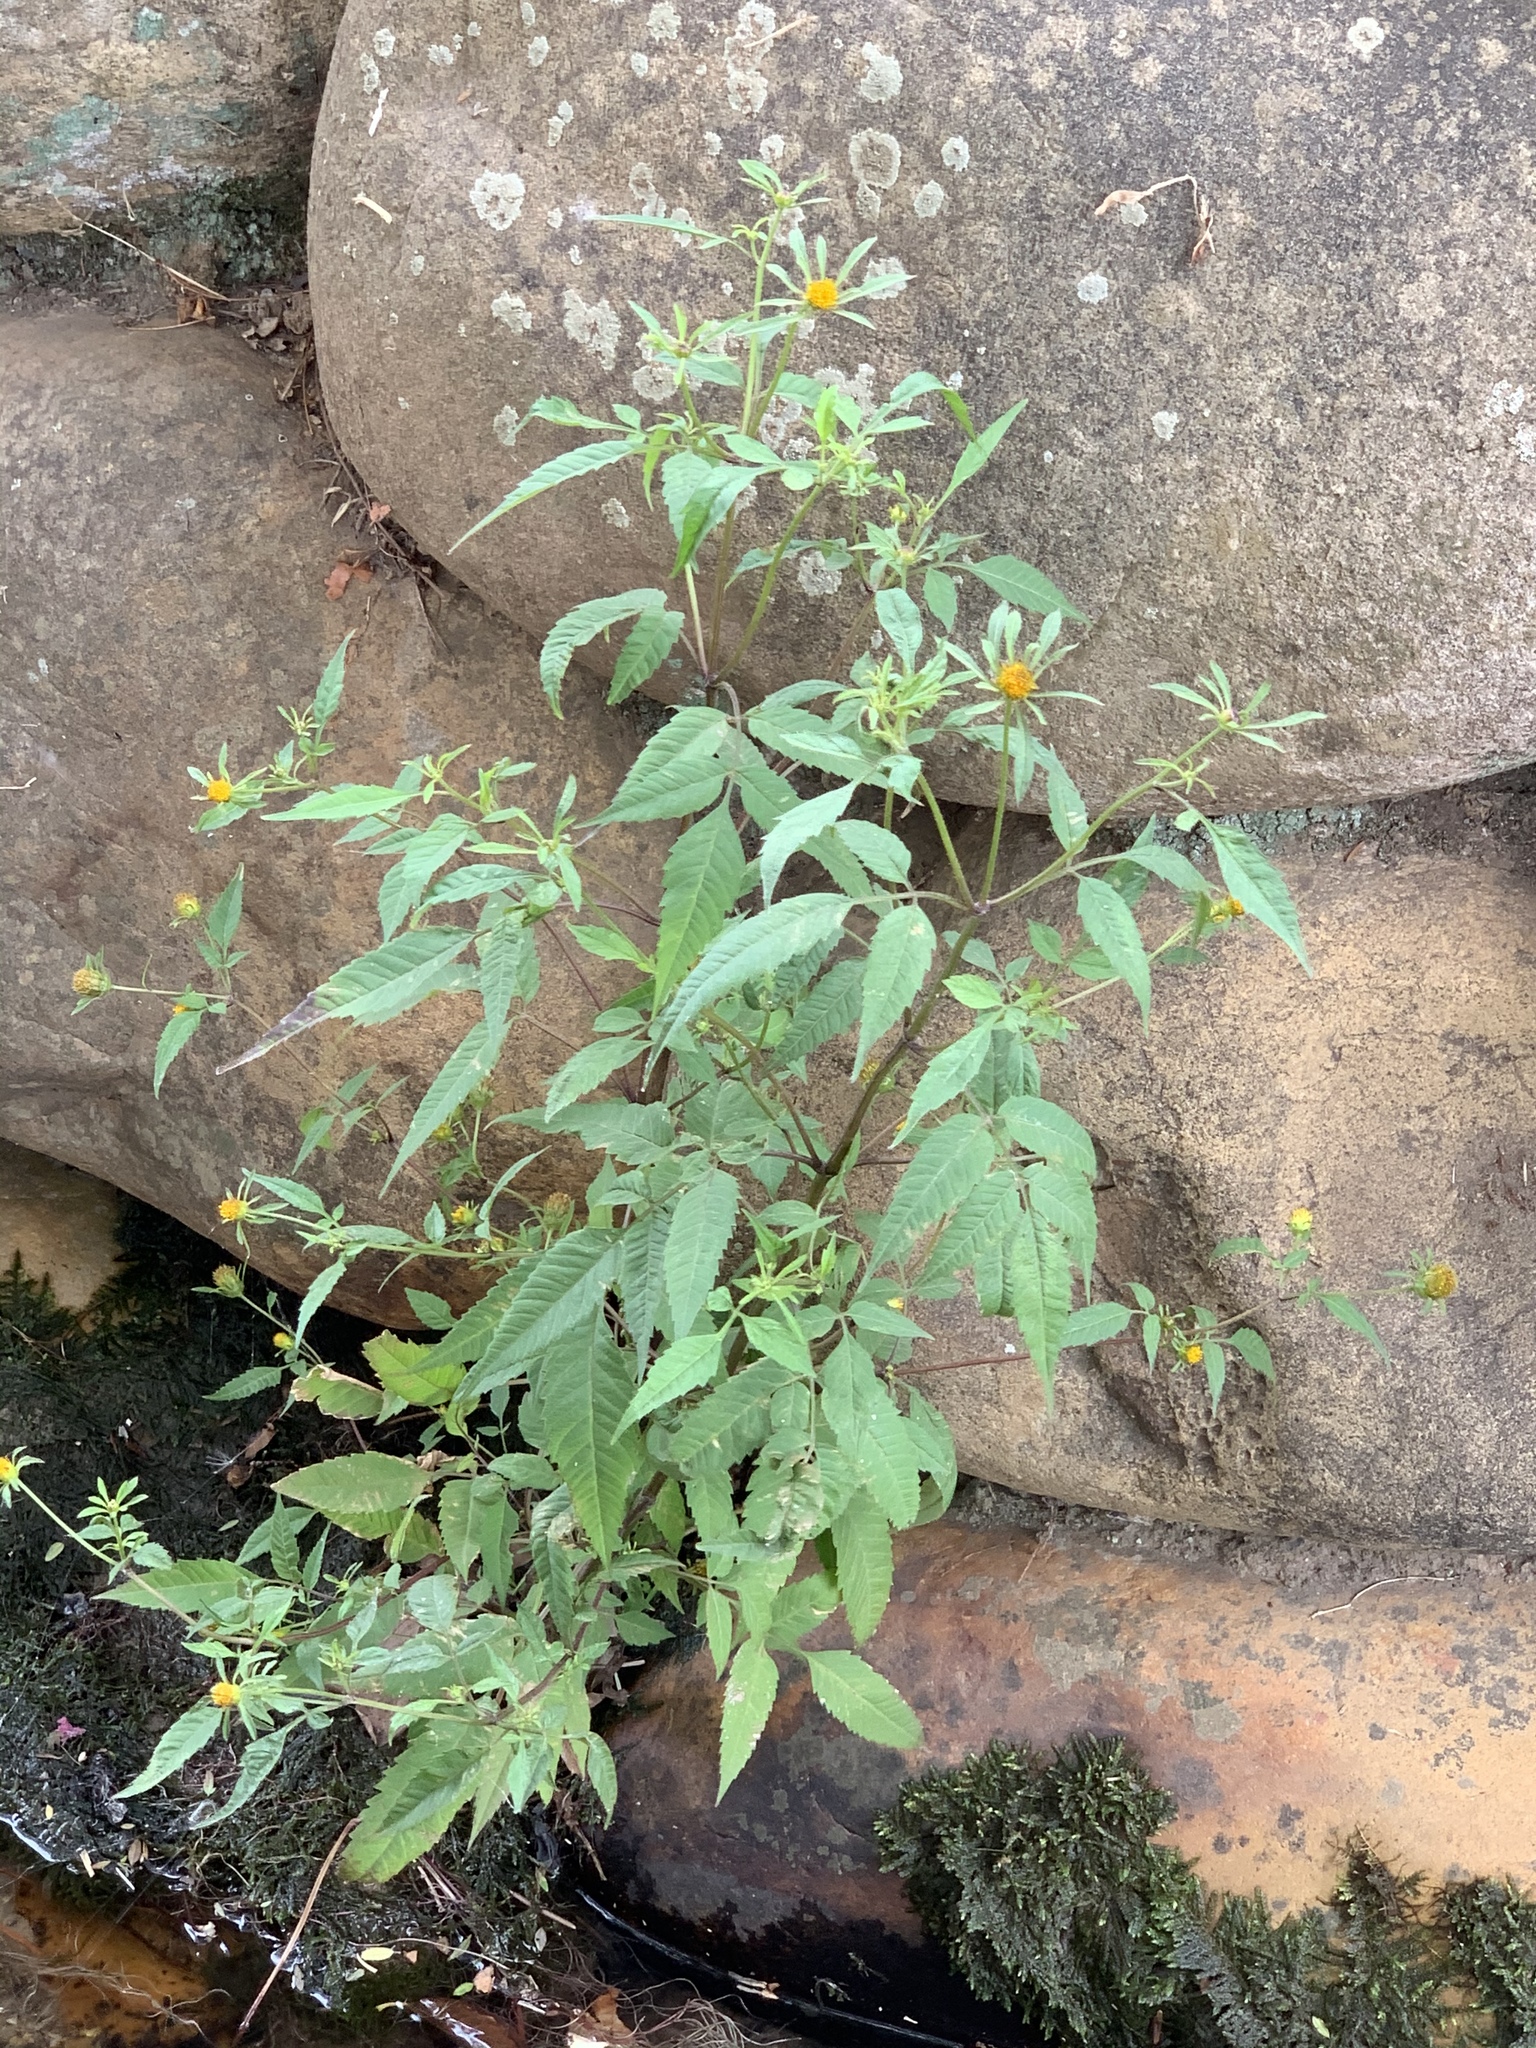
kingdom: Plantae
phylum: Tracheophyta
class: Magnoliopsida
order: Asterales
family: Asteraceae
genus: Bidens
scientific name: Bidens pilosa
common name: Black-jack
